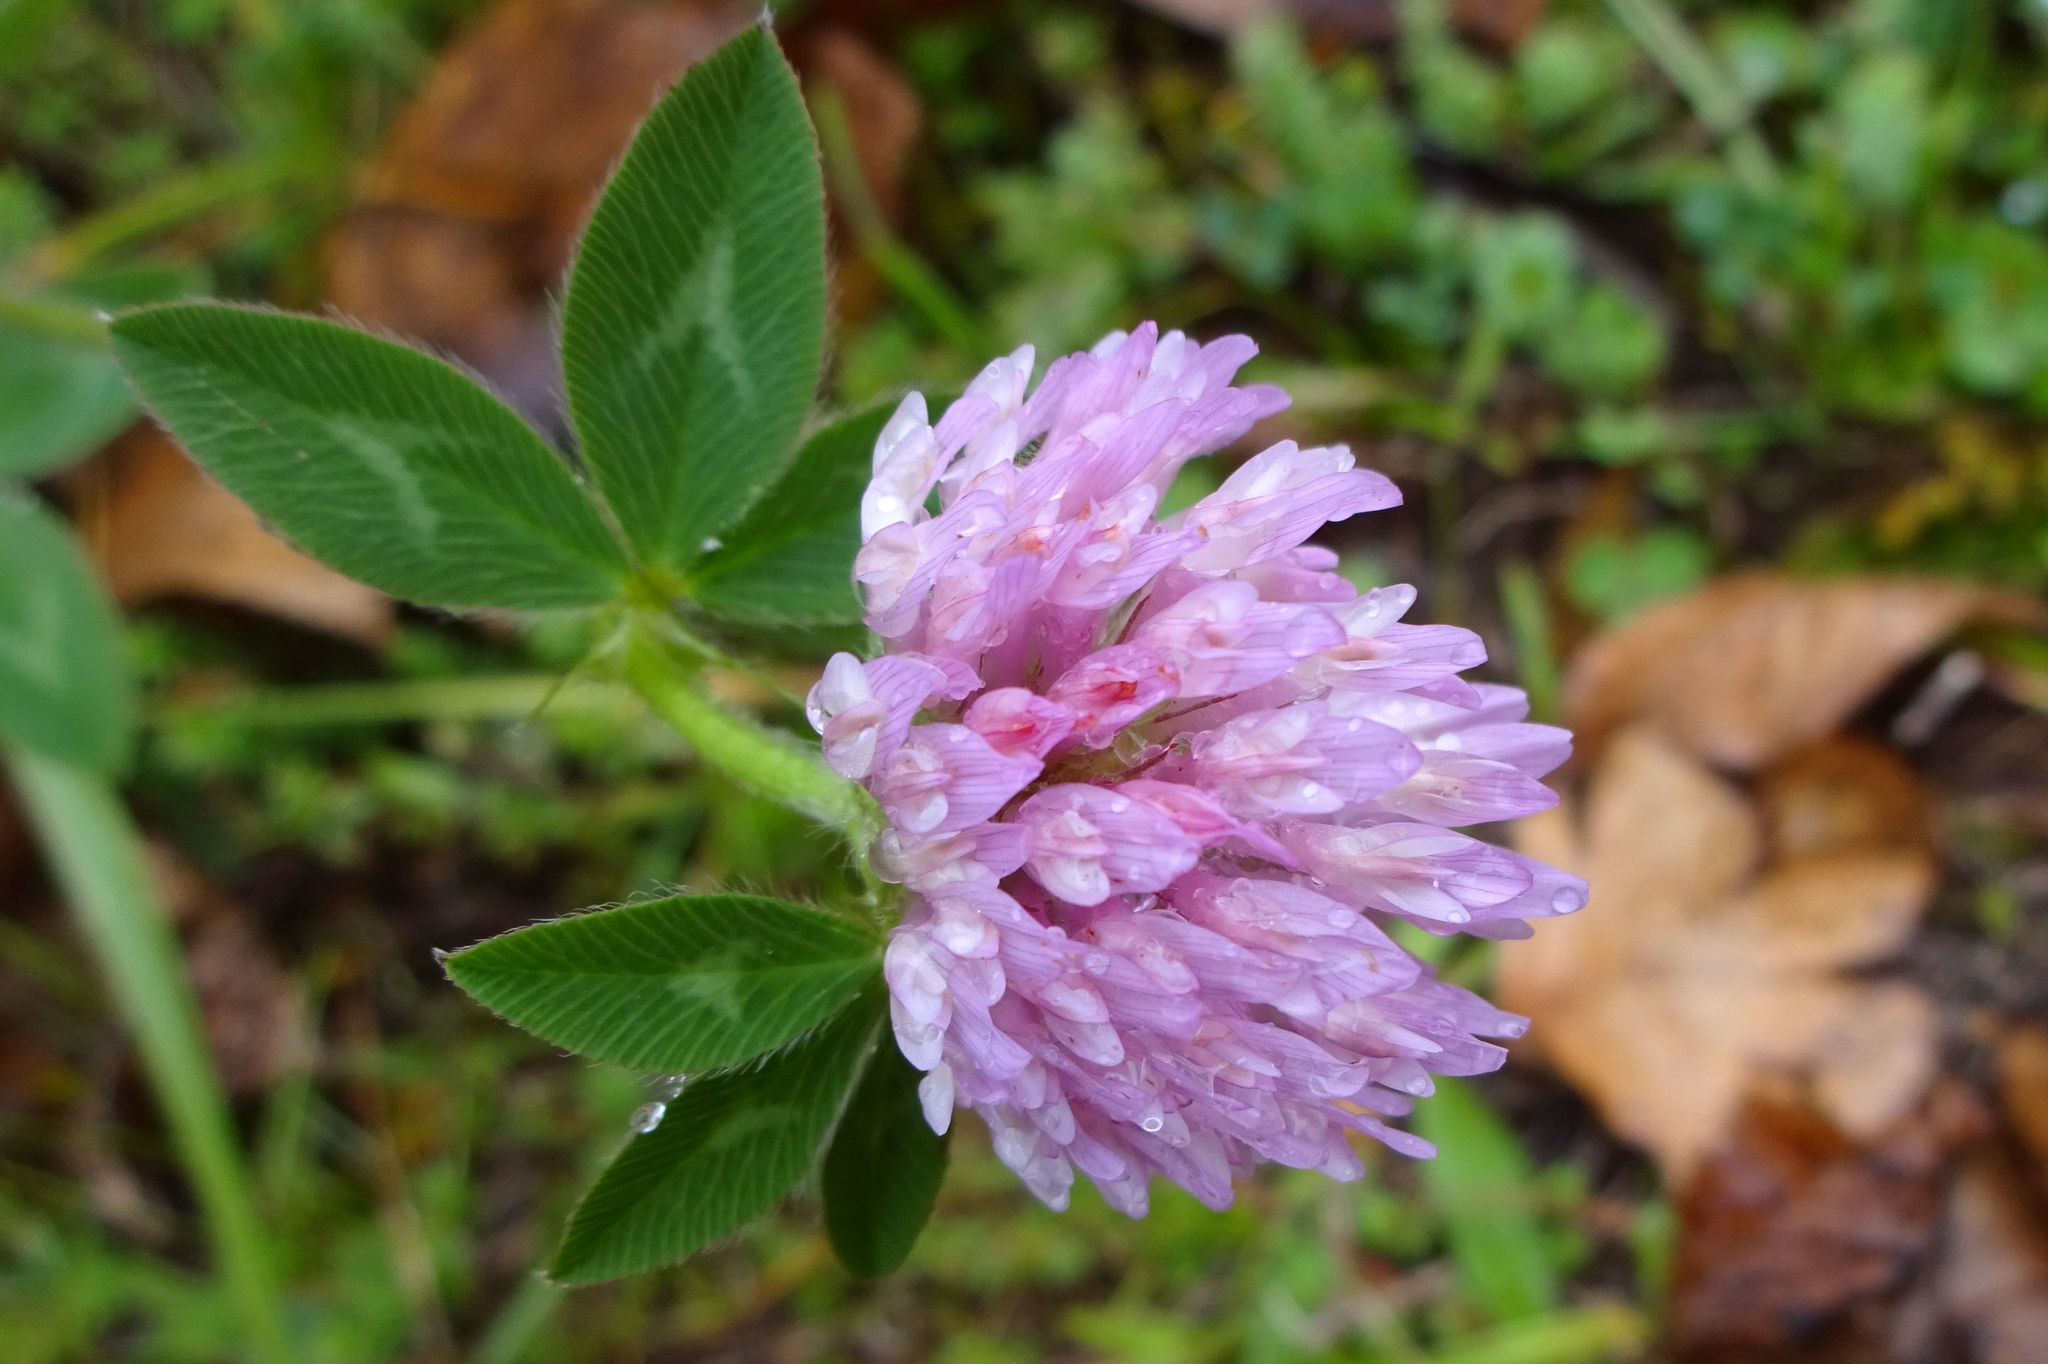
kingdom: Plantae
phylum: Tracheophyta
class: Magnoliopsida
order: Fabales
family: Fabaceae
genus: Trifolium
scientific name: Trifolium pratense
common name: Red clover
